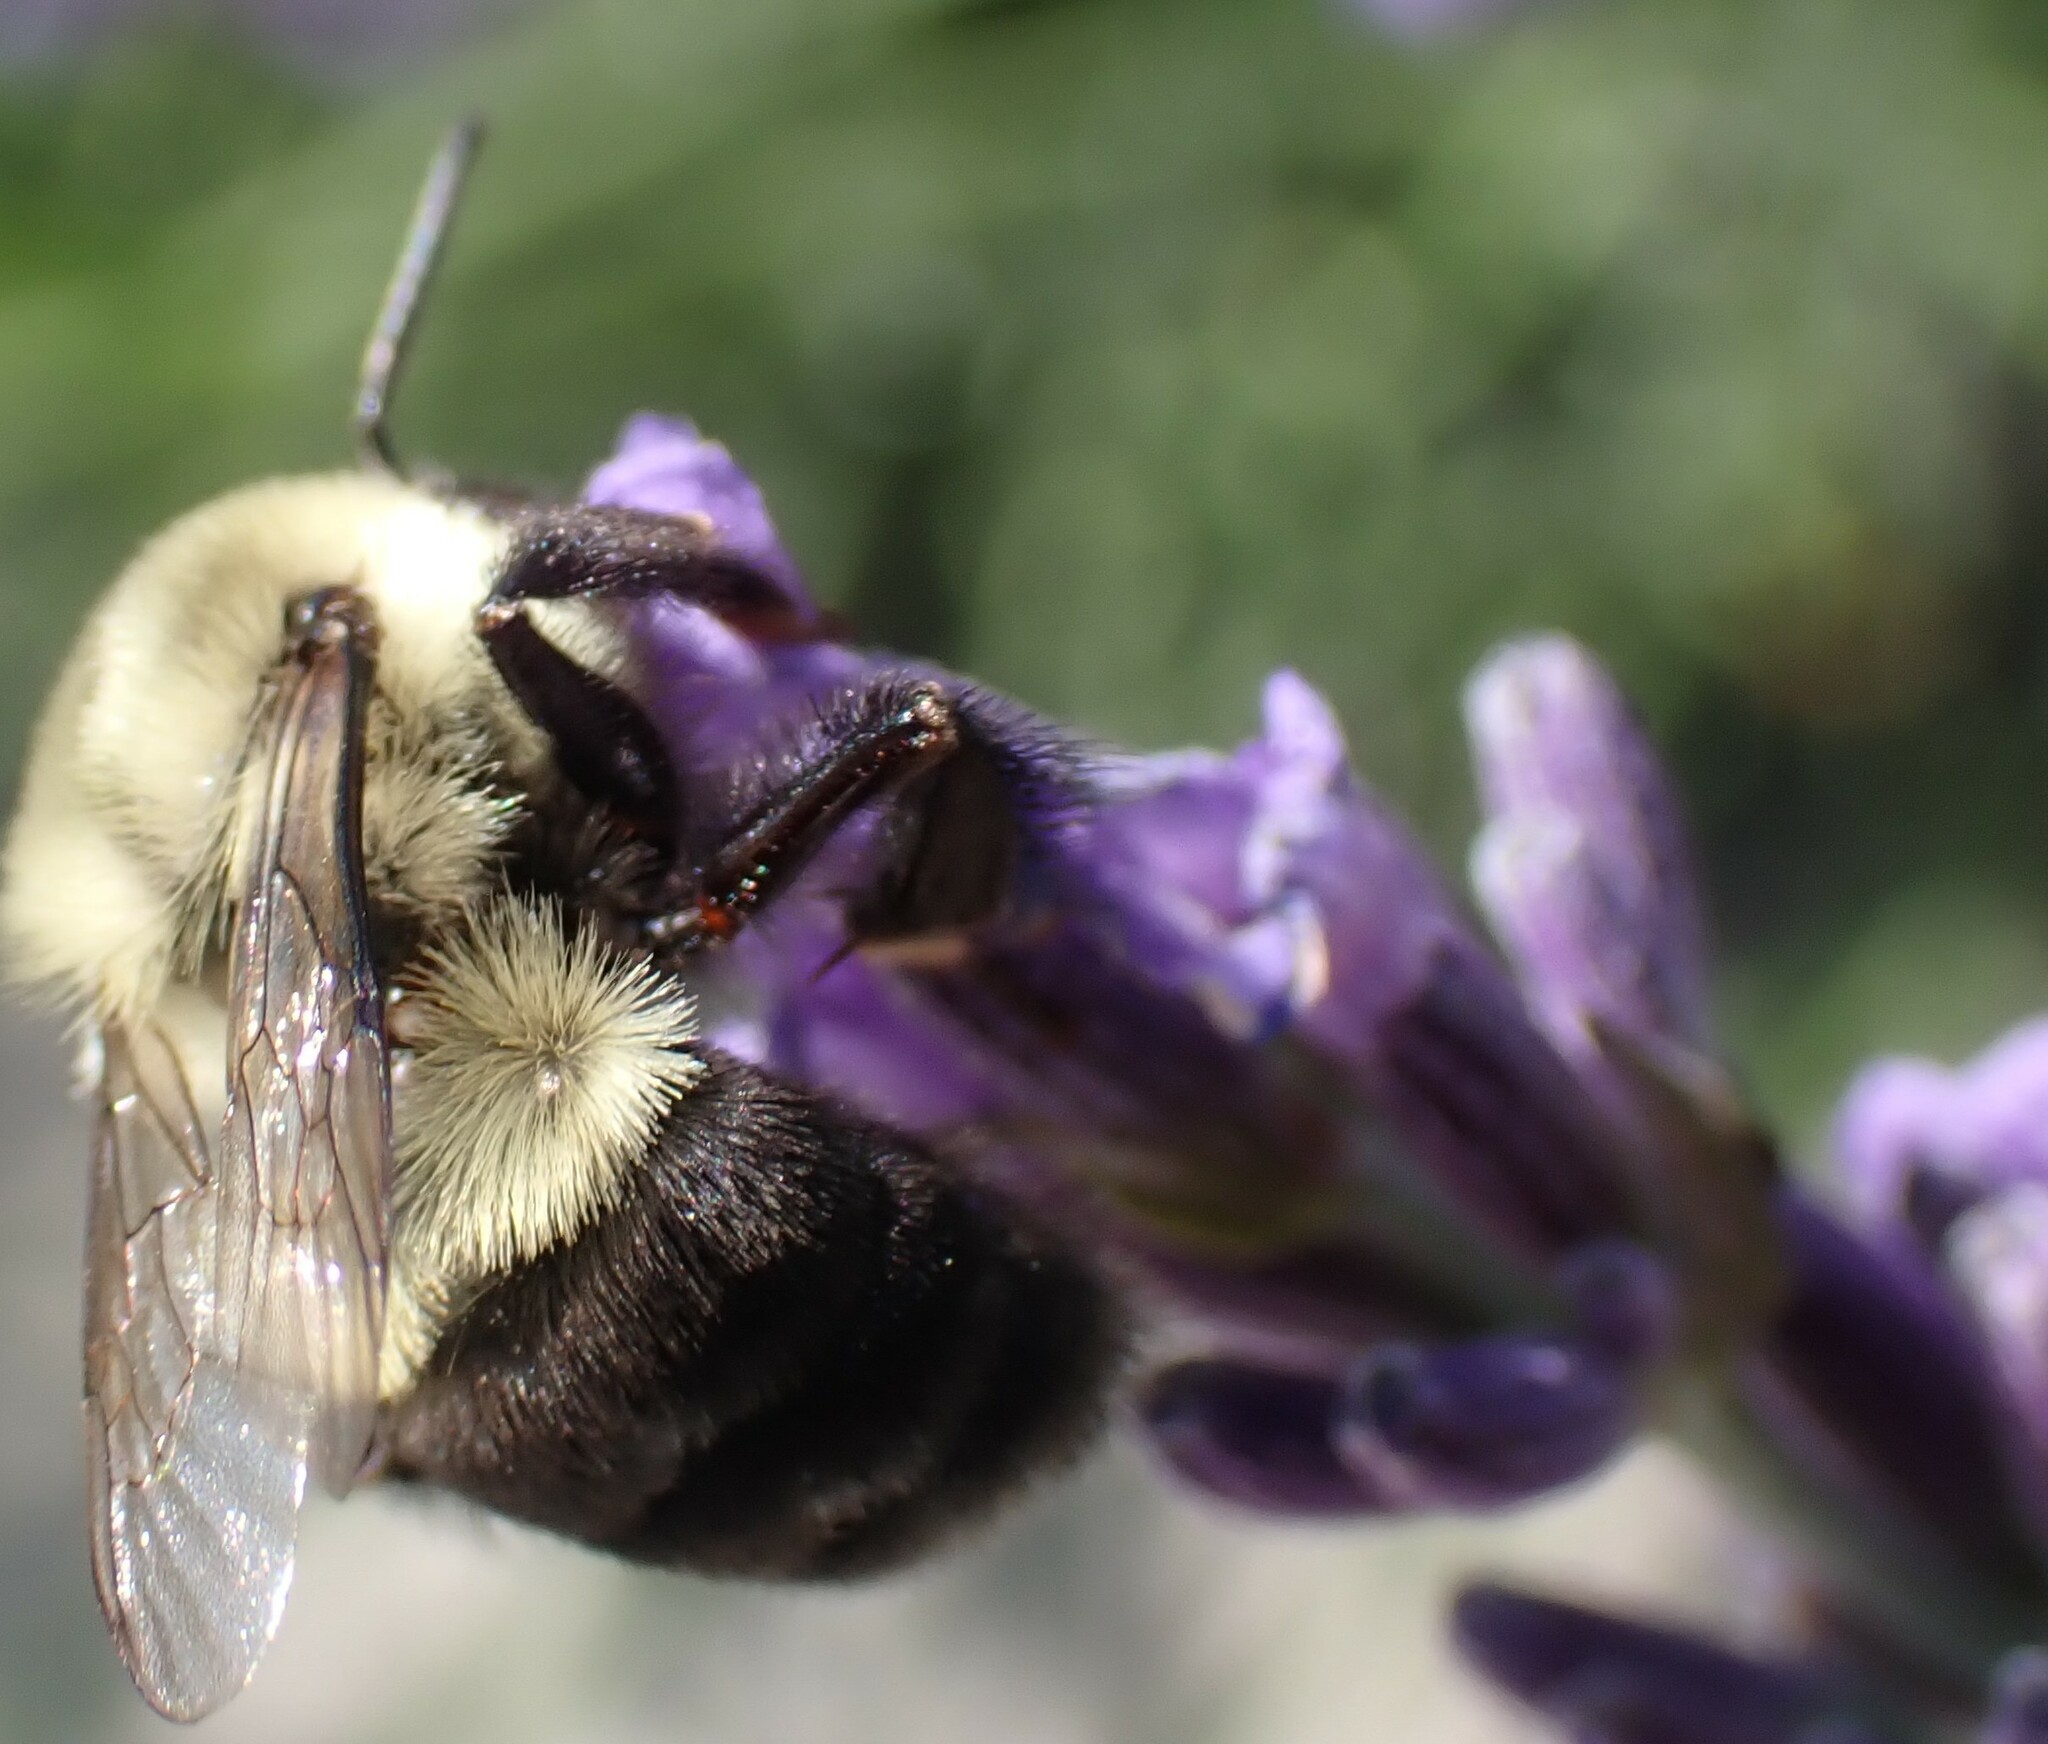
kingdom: Animalia
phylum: Arthropoda
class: Insecta
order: Hymenoptera
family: Apidae
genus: Bombus
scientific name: Bombus impatiens
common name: Common eastern bumble bee
